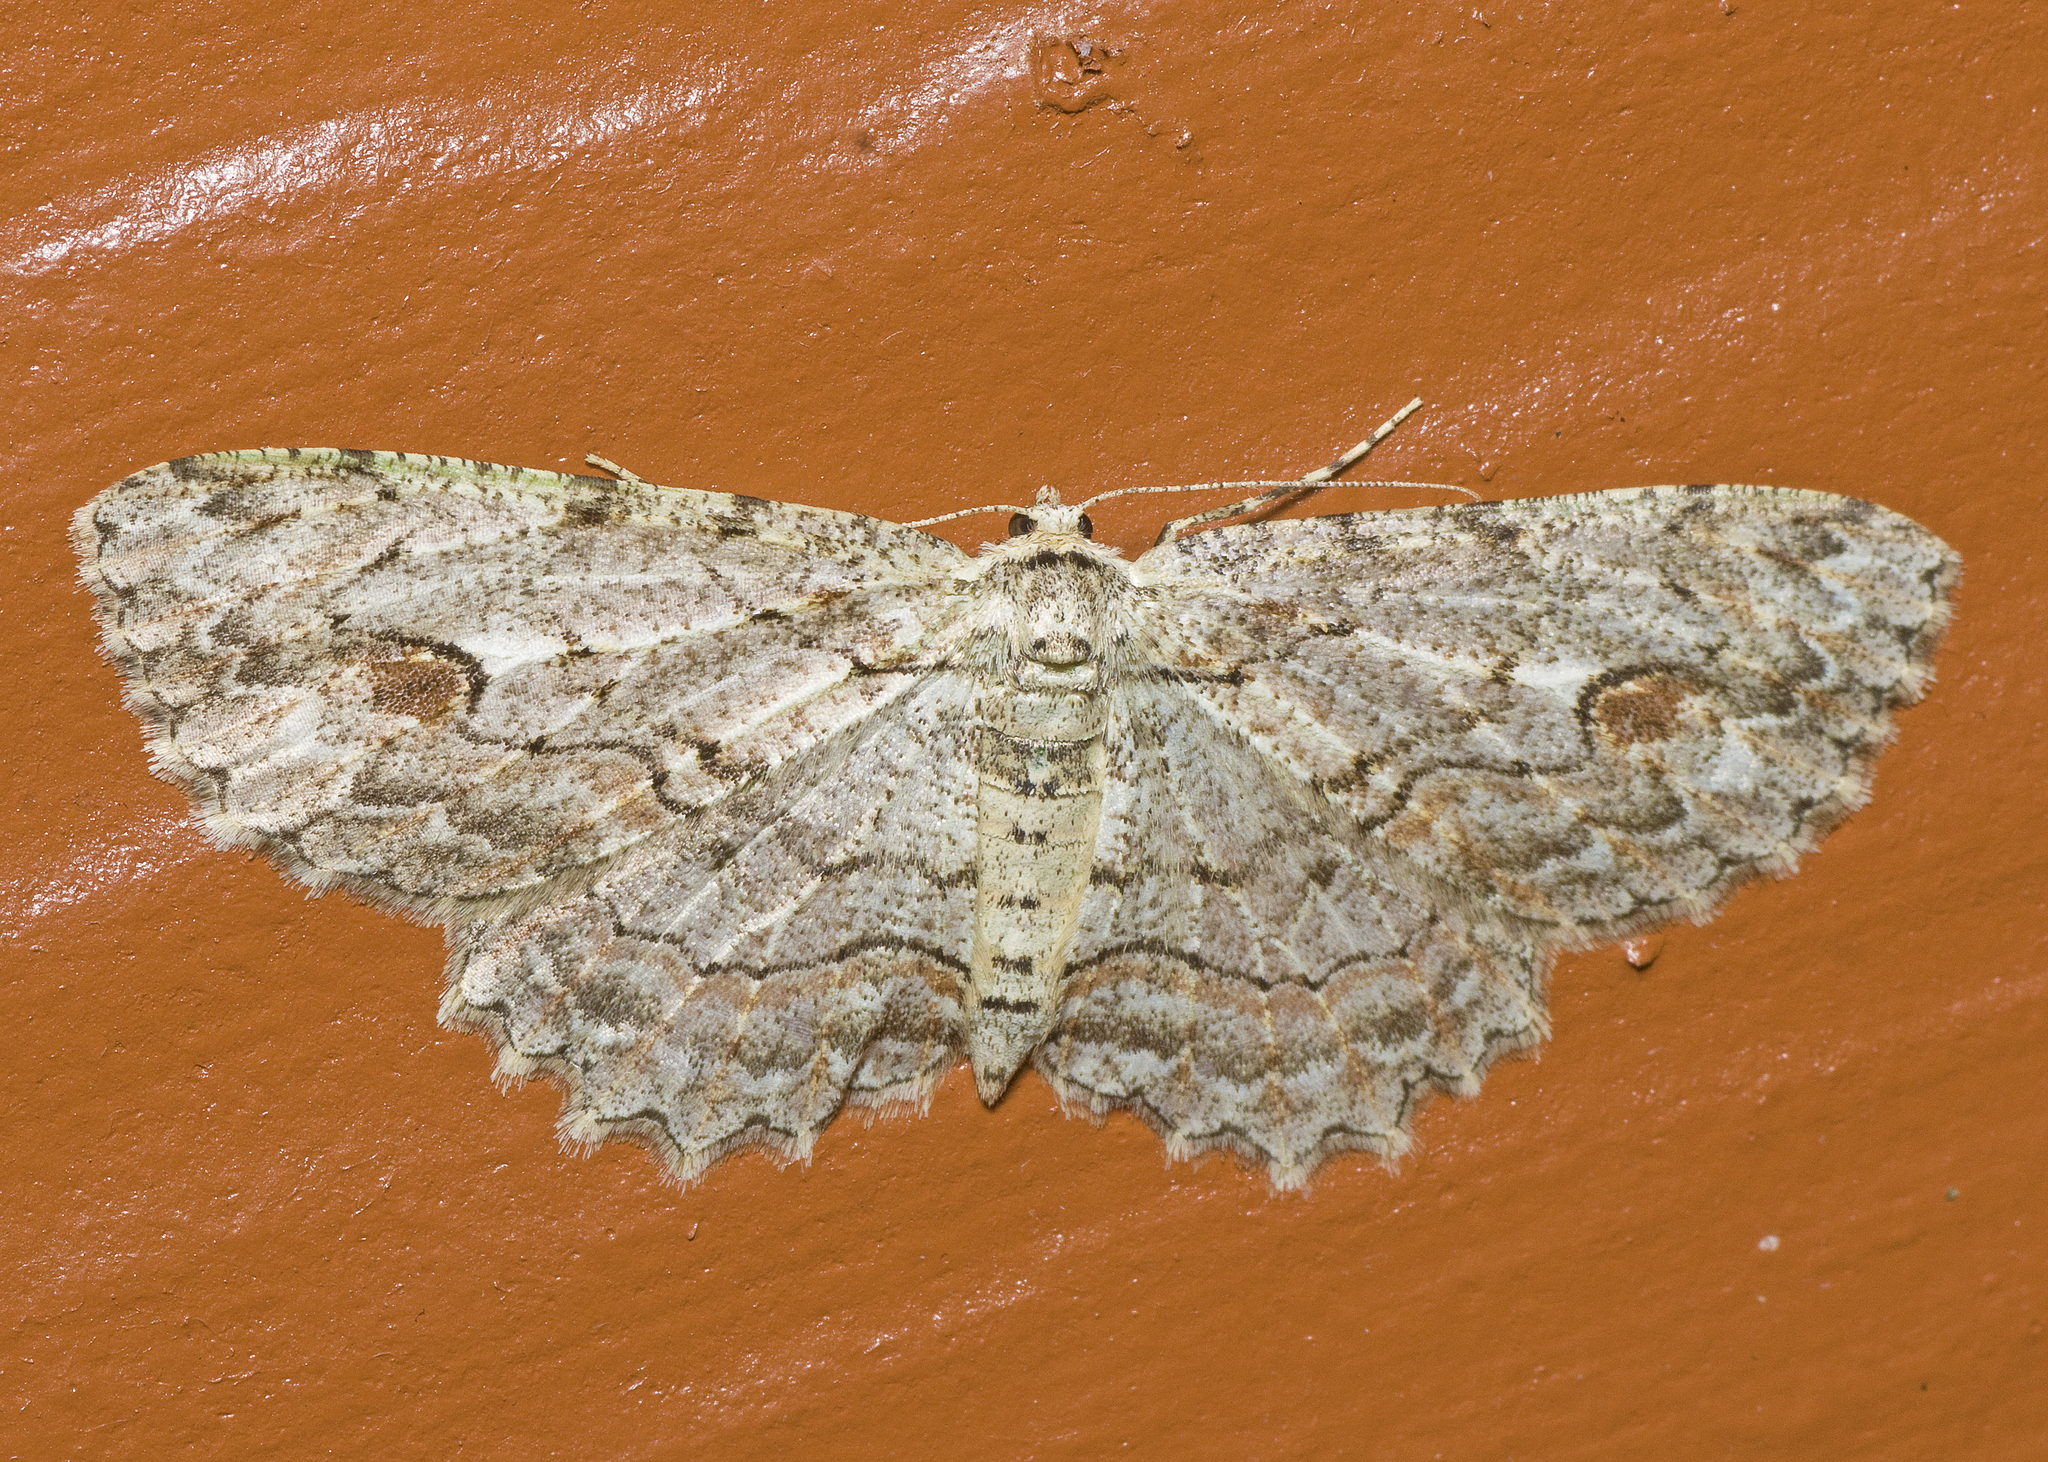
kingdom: Animalia
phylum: Arthropoda
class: Insecta
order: Lepidoptera
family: Geometridae
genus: Ectropis
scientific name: Ectropis bispinaria
